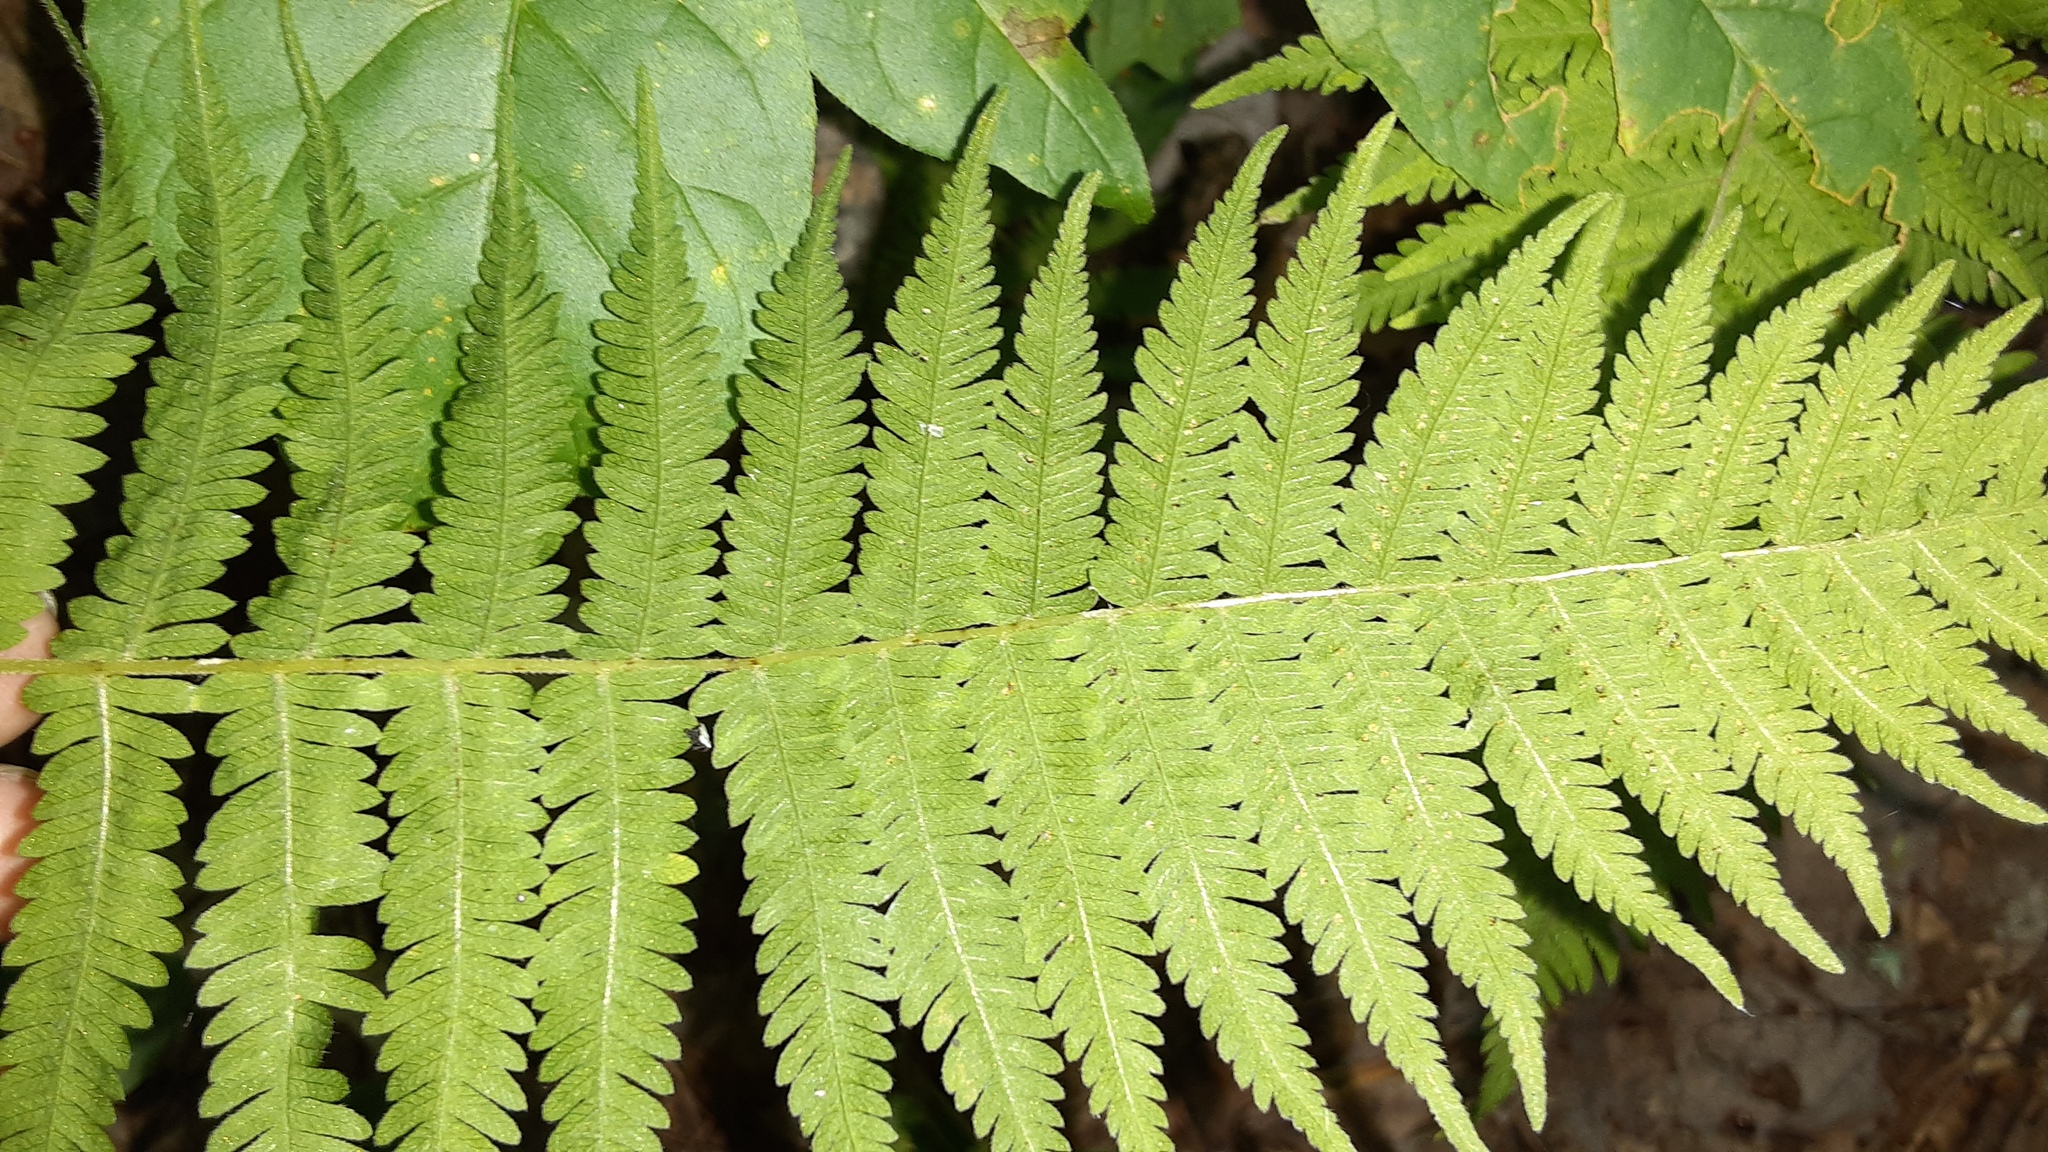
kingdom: Plantae
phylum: Tracheophyta
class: Polypodiopsida
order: Polypodiales
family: Thelypteridaceae
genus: Amauropelta
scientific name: Amauropelta noveboracensis
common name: New york fern
